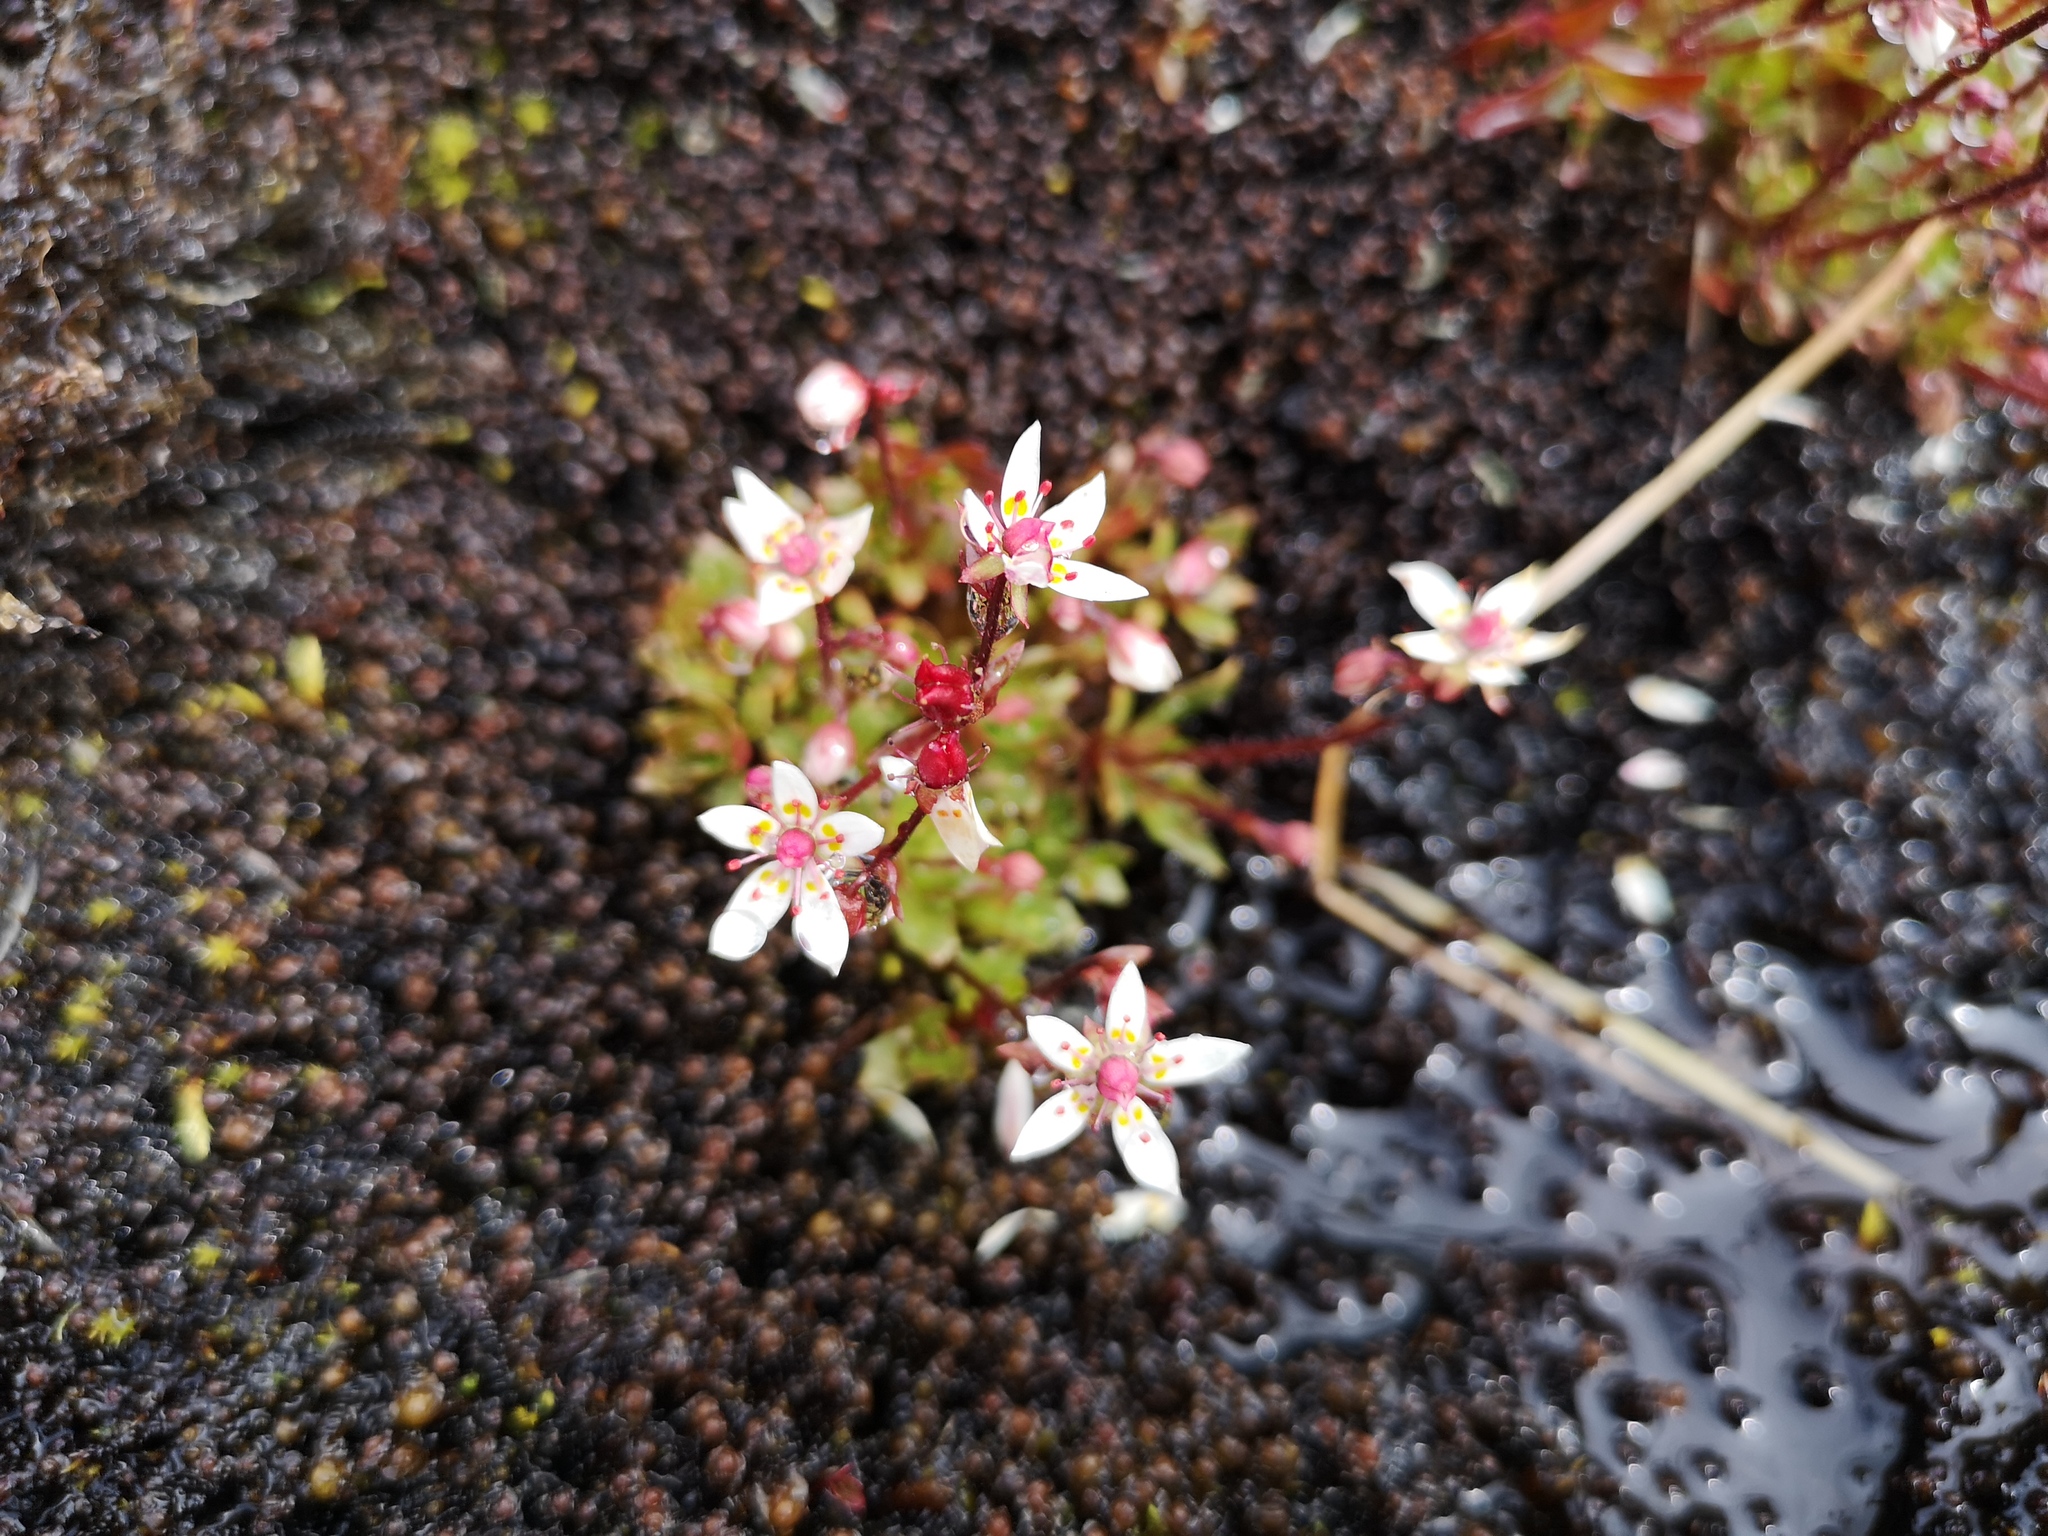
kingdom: Plantae
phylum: Tracheophyta
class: Magnoliopsida
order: Saxifragales
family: Saxifragaceae
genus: Micranthes
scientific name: Micranthes stellaris
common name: Starry saxifrage
